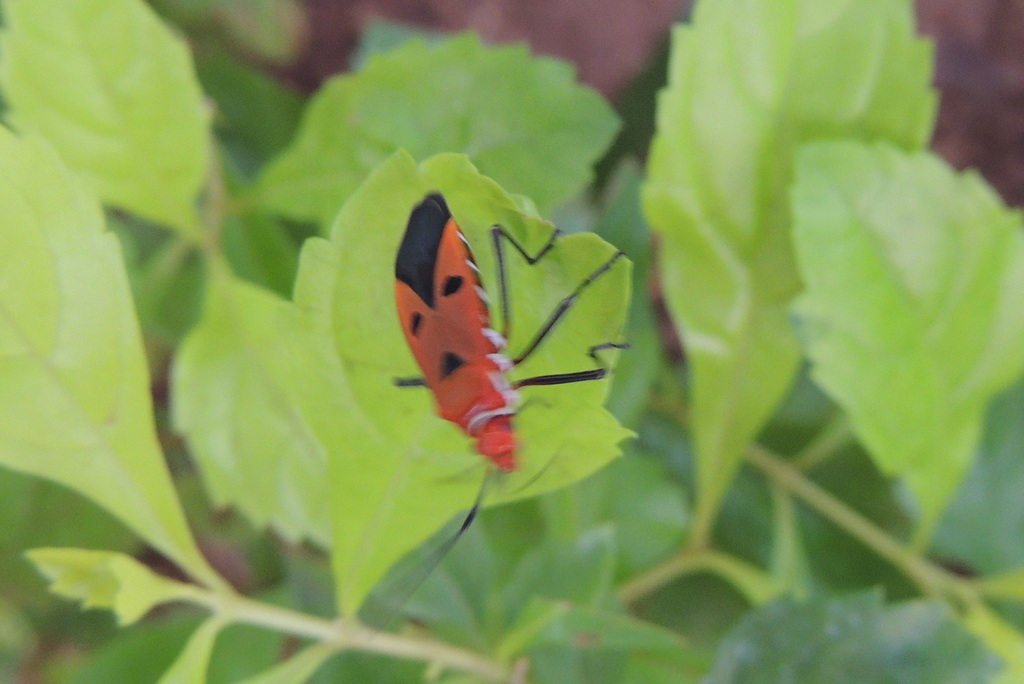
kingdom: Animalia
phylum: Arthropoda
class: Insecta
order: Hemiptera
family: Pyrrhocoridae
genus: Dysdercus
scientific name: Dysdercus cingulatus
